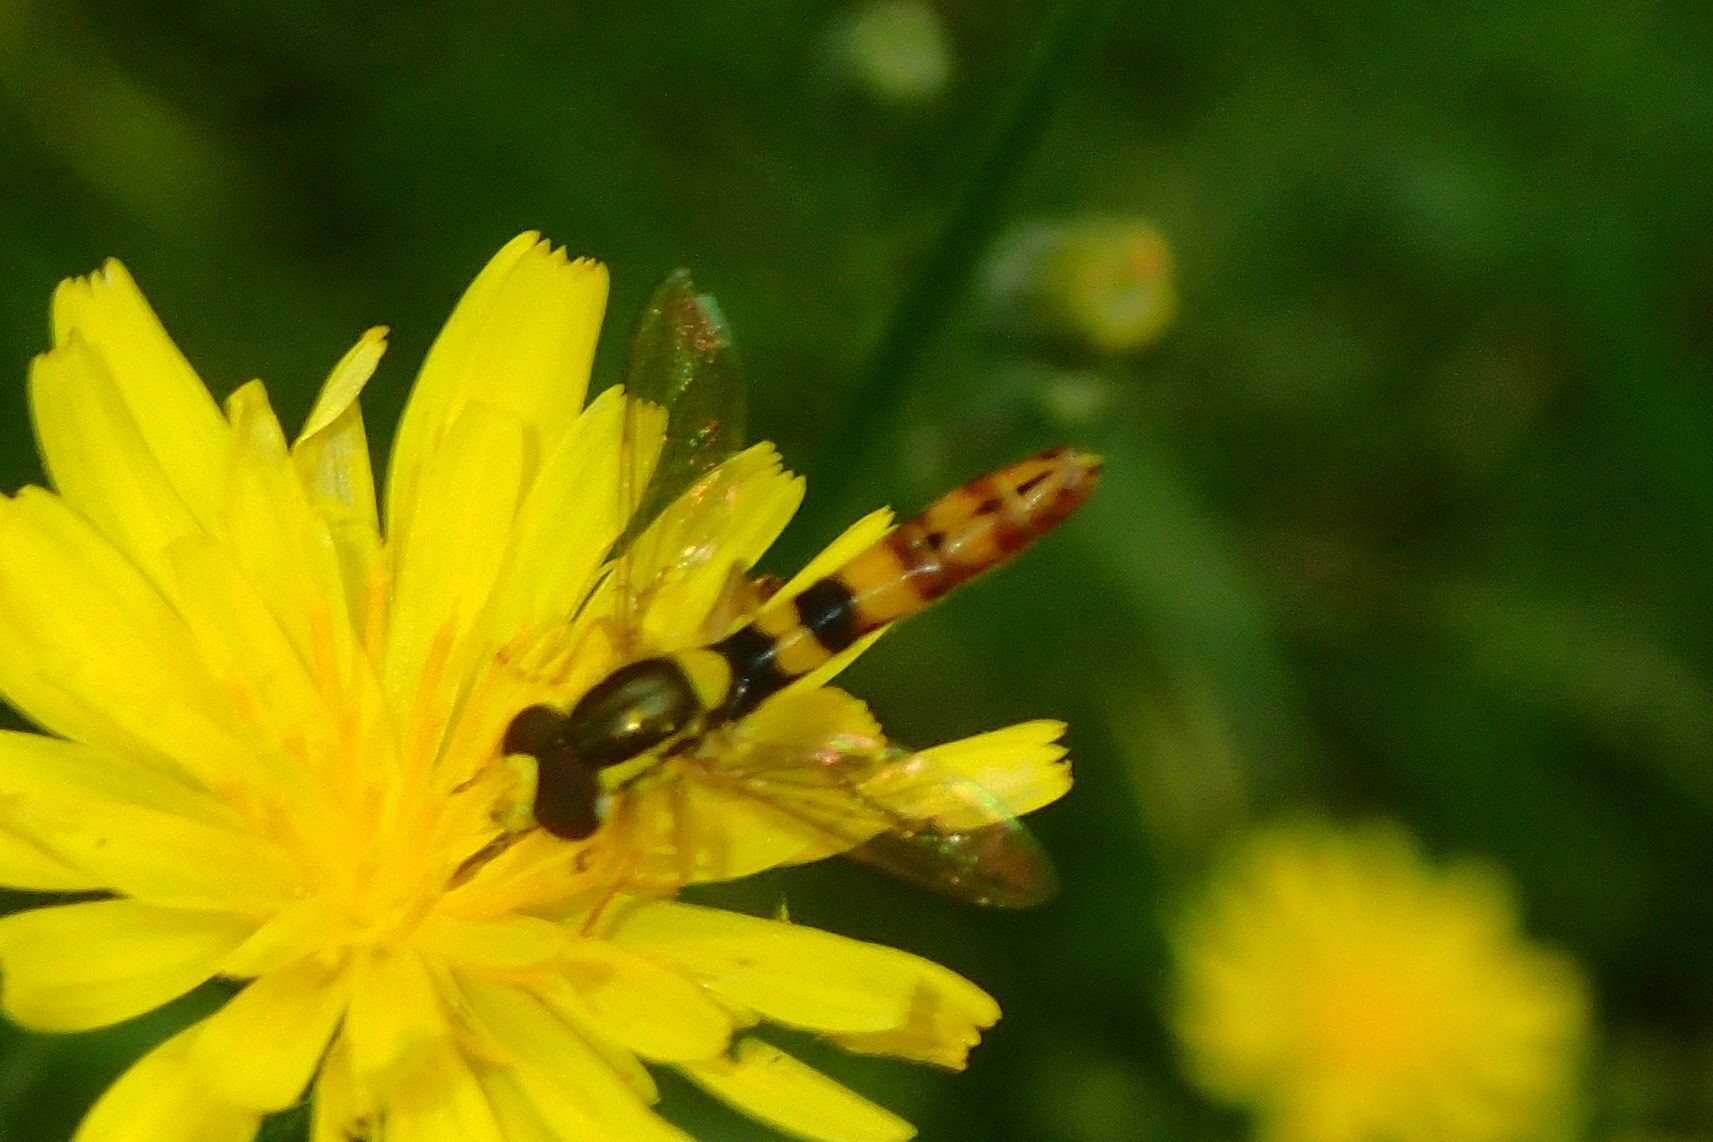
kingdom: Animalia
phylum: Arthropoda
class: Insecta
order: Diptera
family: Syrphidae
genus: Sphaerophoria
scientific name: Sphaerophoria scripta
